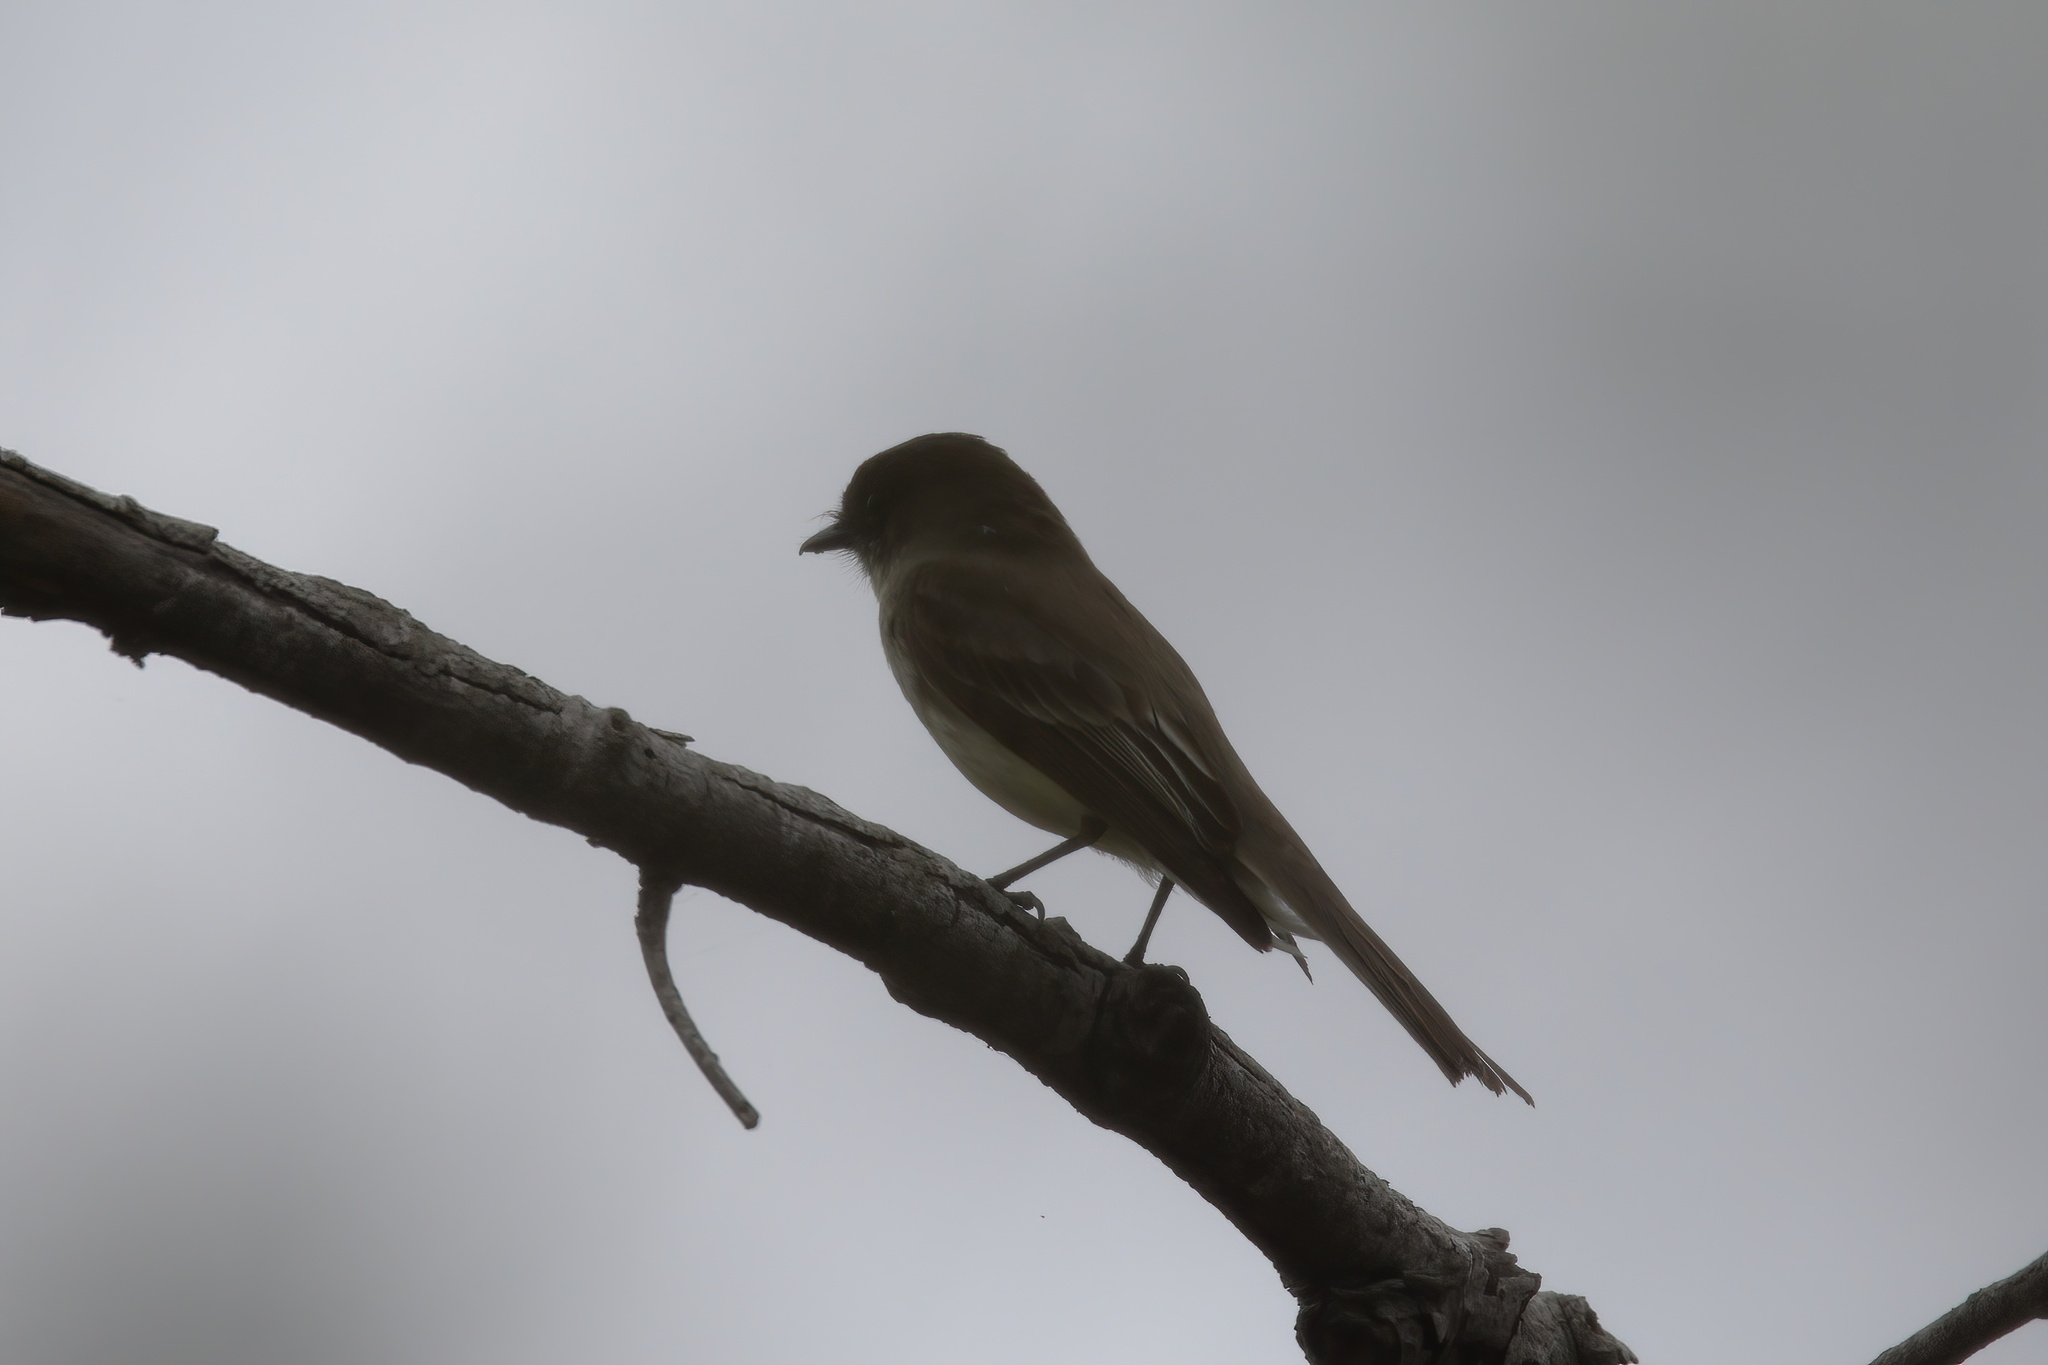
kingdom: Animalia
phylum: Chordata
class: Aves
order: Passeriformes
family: Tyrannidae
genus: Sayornis
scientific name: Sayornis phoebe
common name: Eastern phoebe
